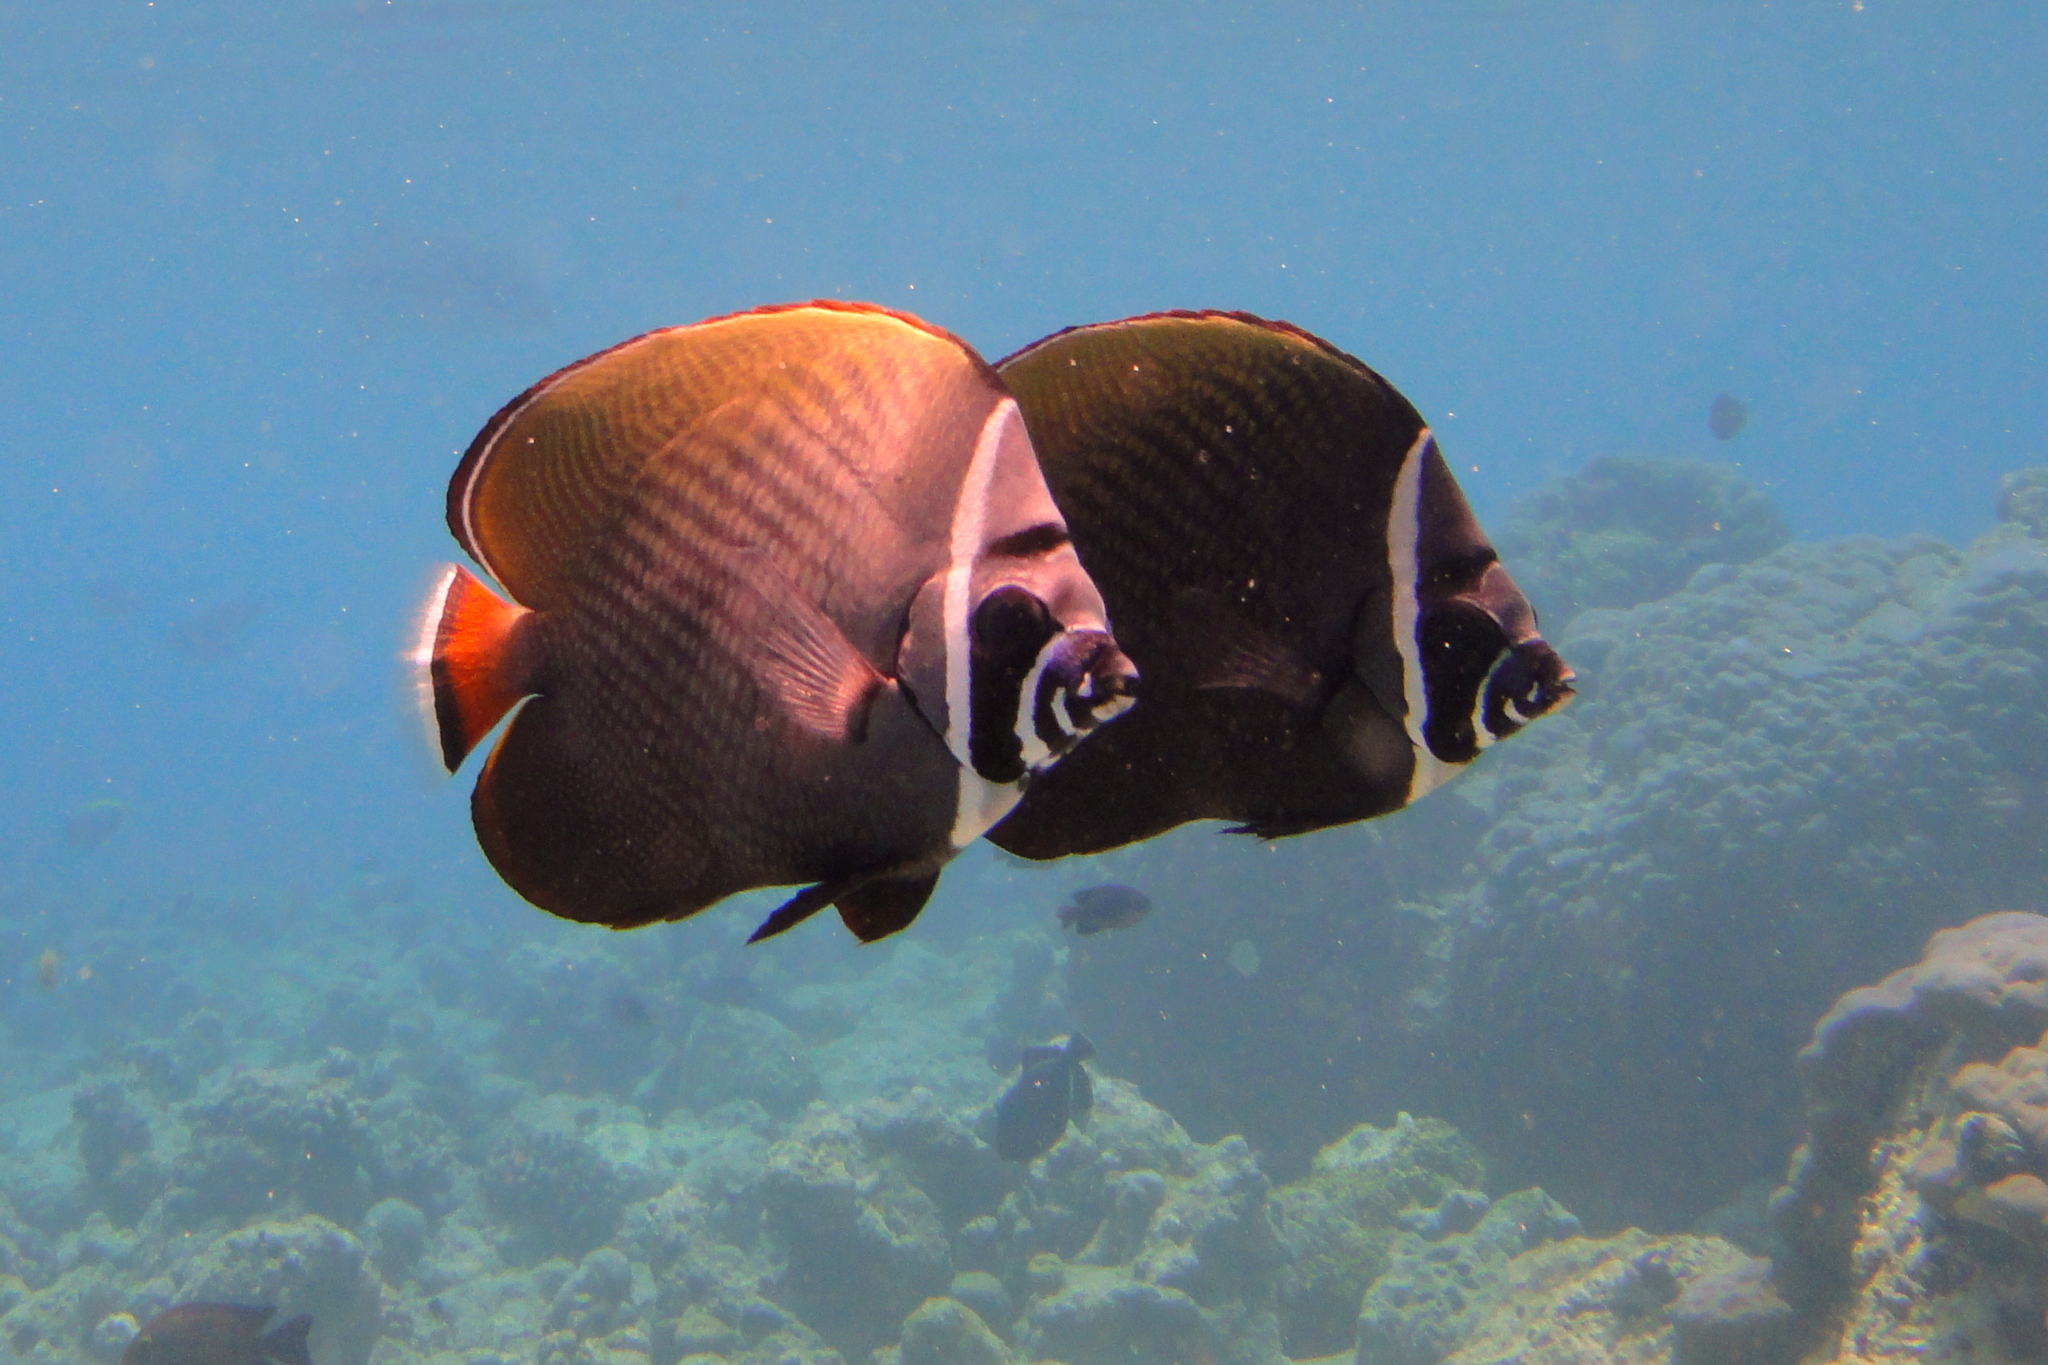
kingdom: Animalia
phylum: Chordata
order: Perciformes
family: Chaetodontidae
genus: Chaetodon
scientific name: Chaetodon collare
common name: Redtail butterflyfish
